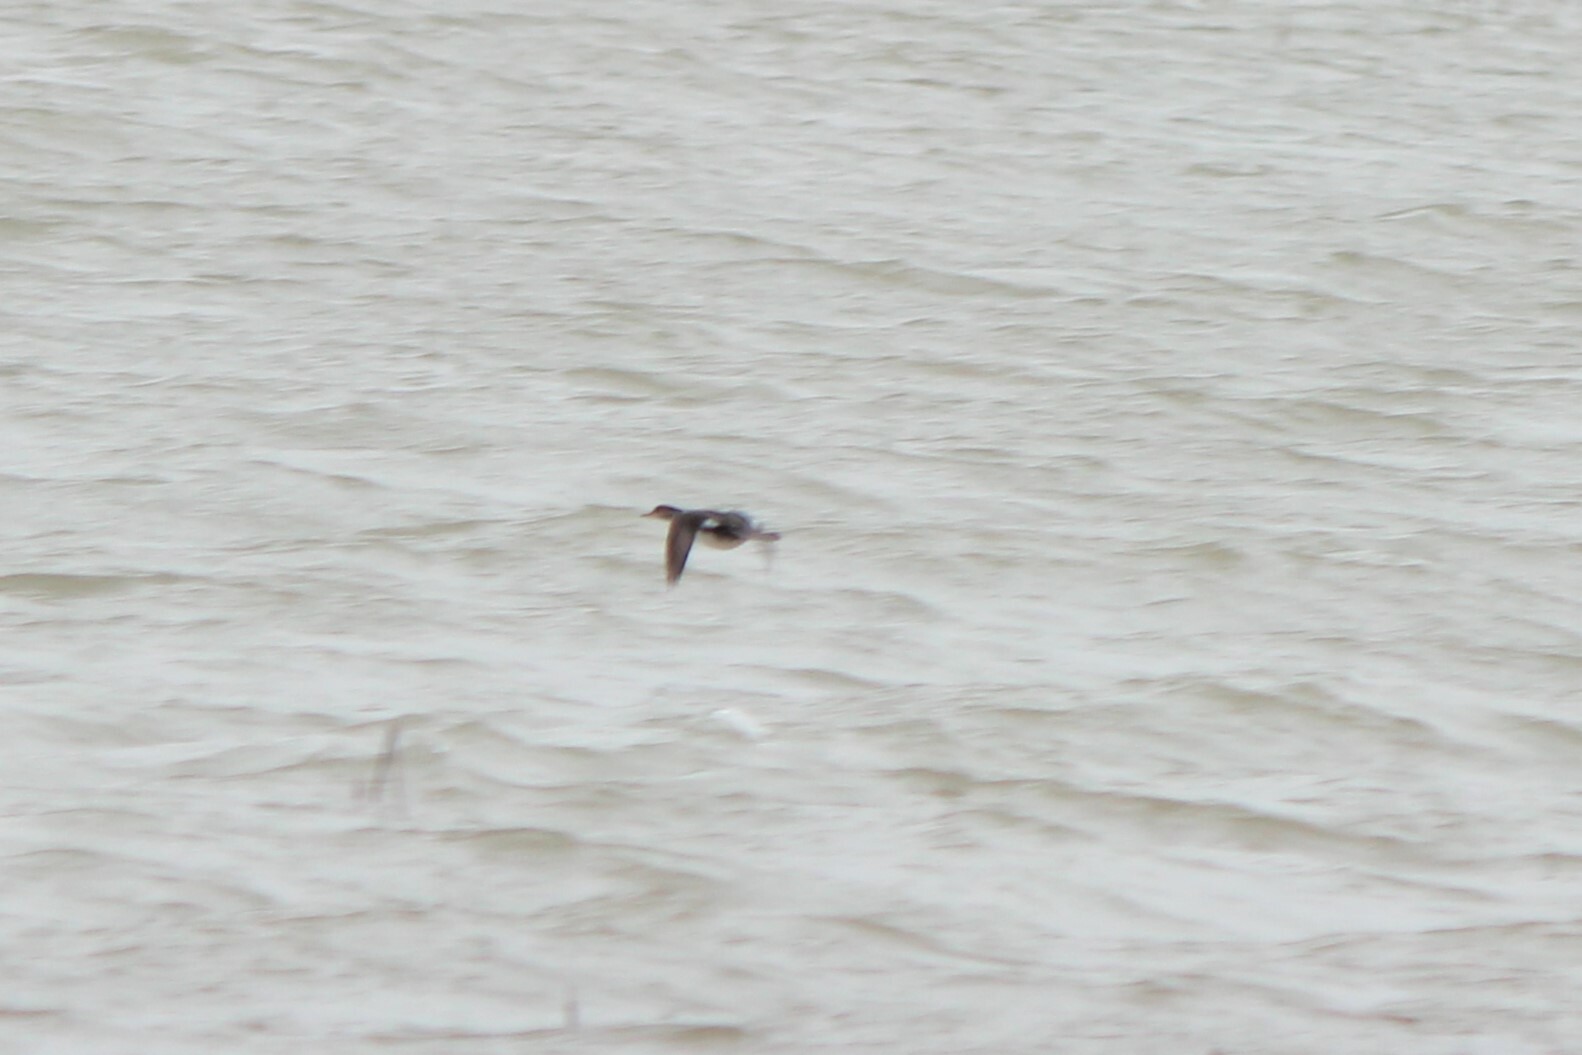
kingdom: Animalia
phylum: Chordata
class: Aves
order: Anseriformes
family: Anatidae
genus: Lophodytes
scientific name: Lophodytes cucullatus
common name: Hooded merganser
